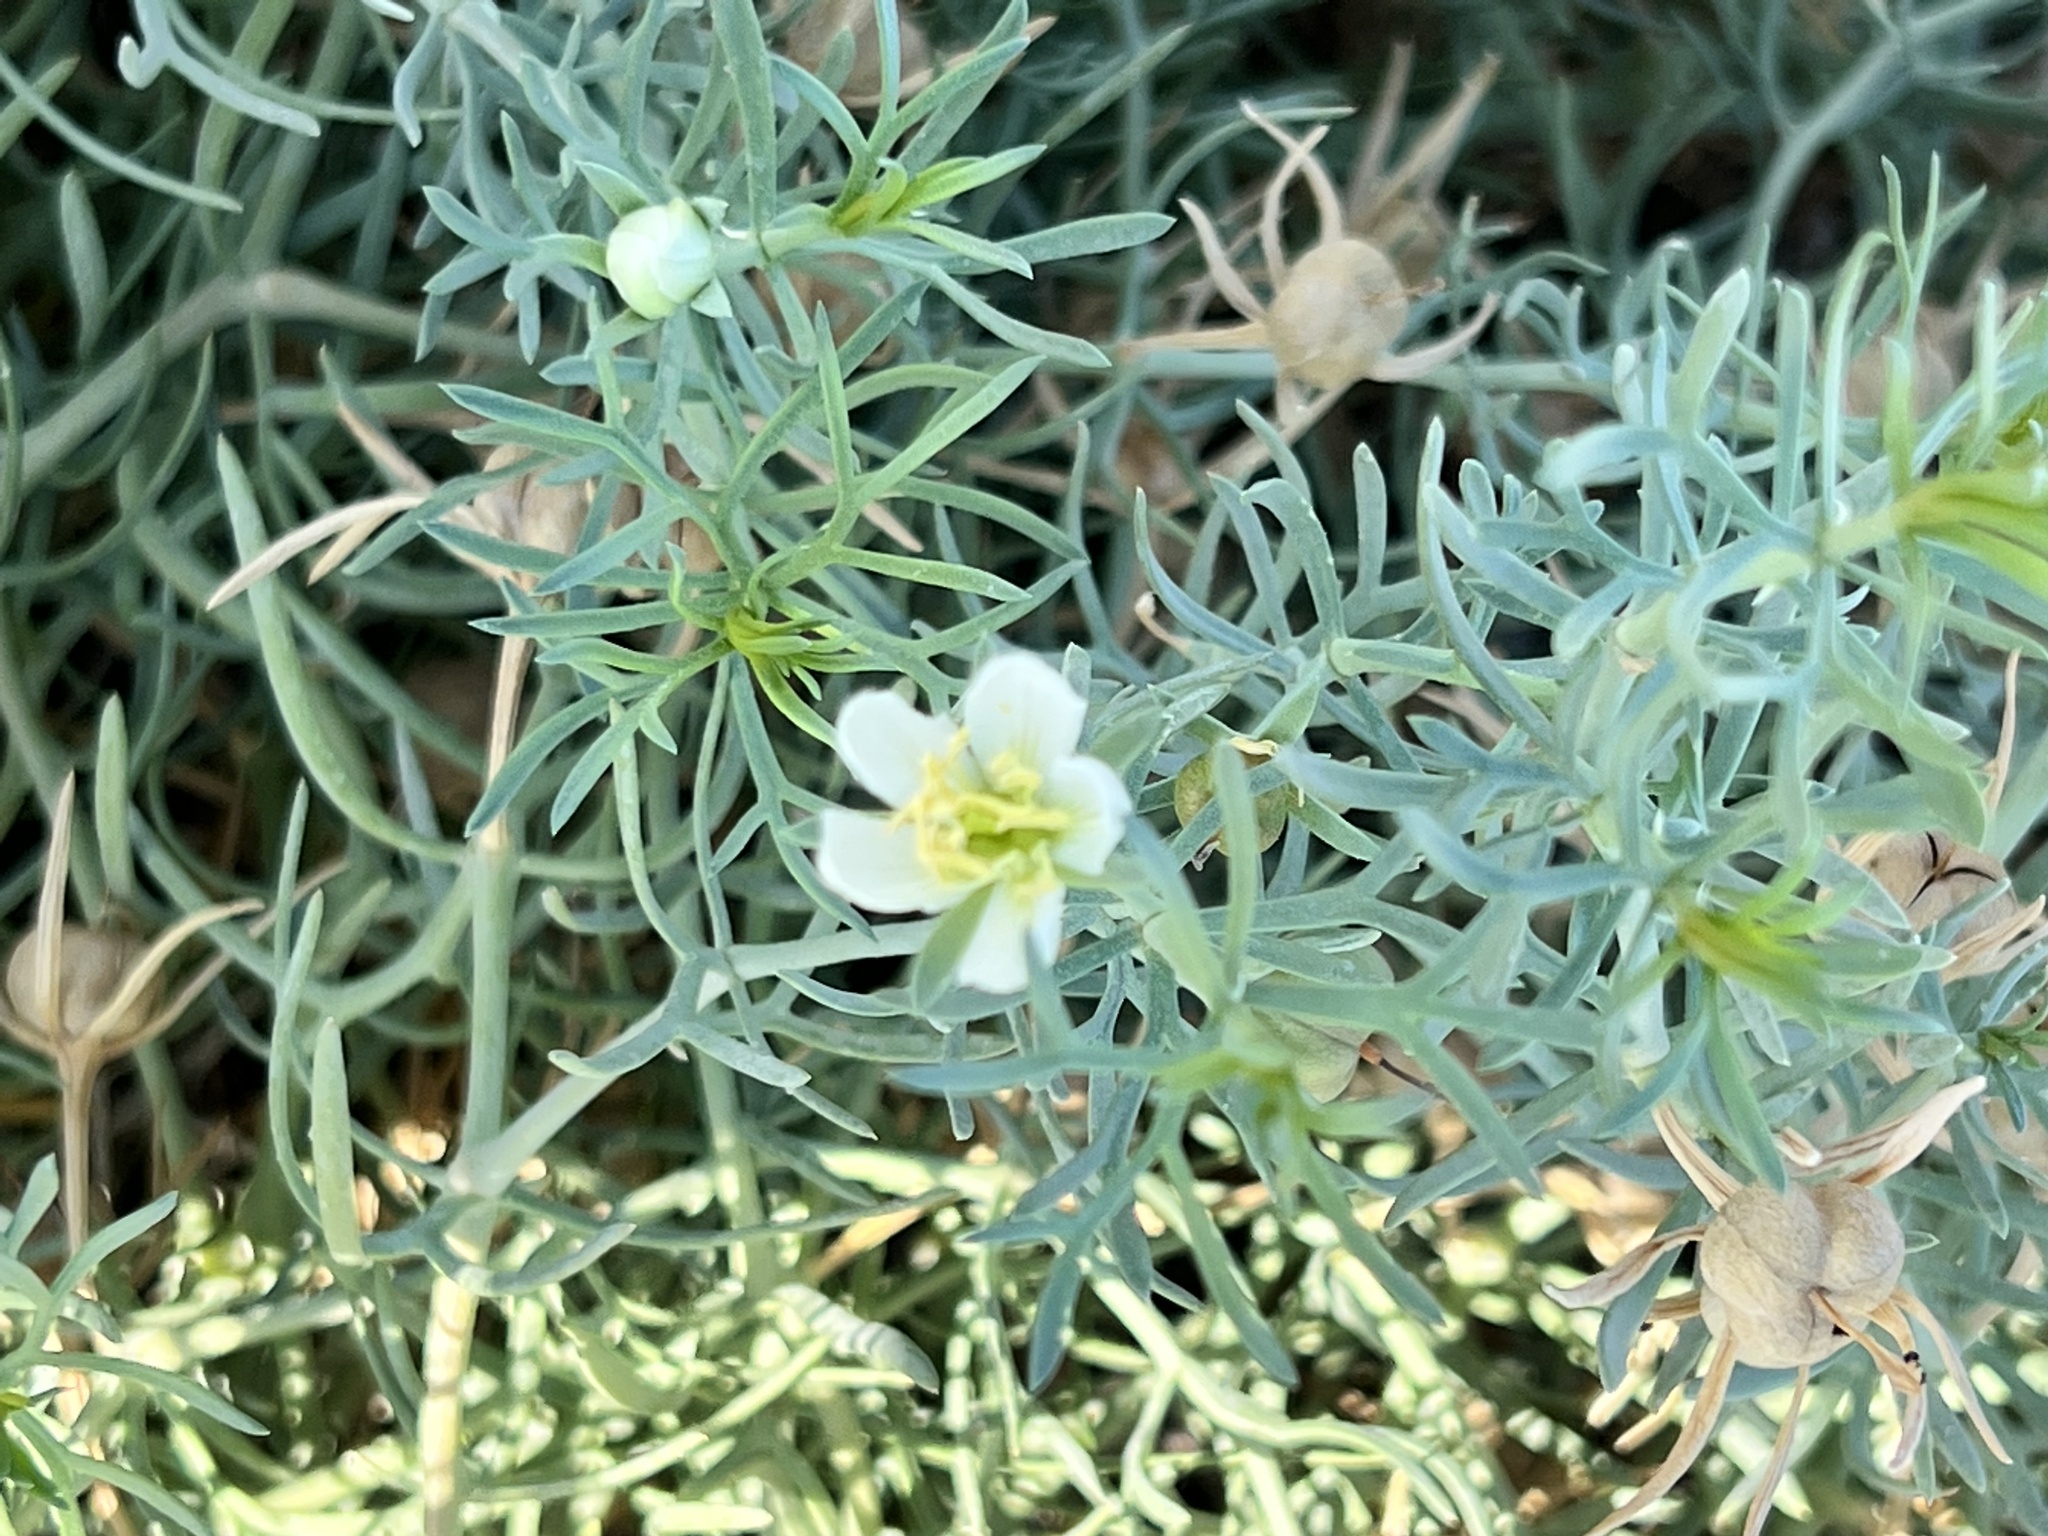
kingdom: Plantae
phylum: Tracheophyta
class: Magnoliopsida
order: Sapindales
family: Tetradiclidaceae
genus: Peganum
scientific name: Peganum harmala
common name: Harmal peganum
